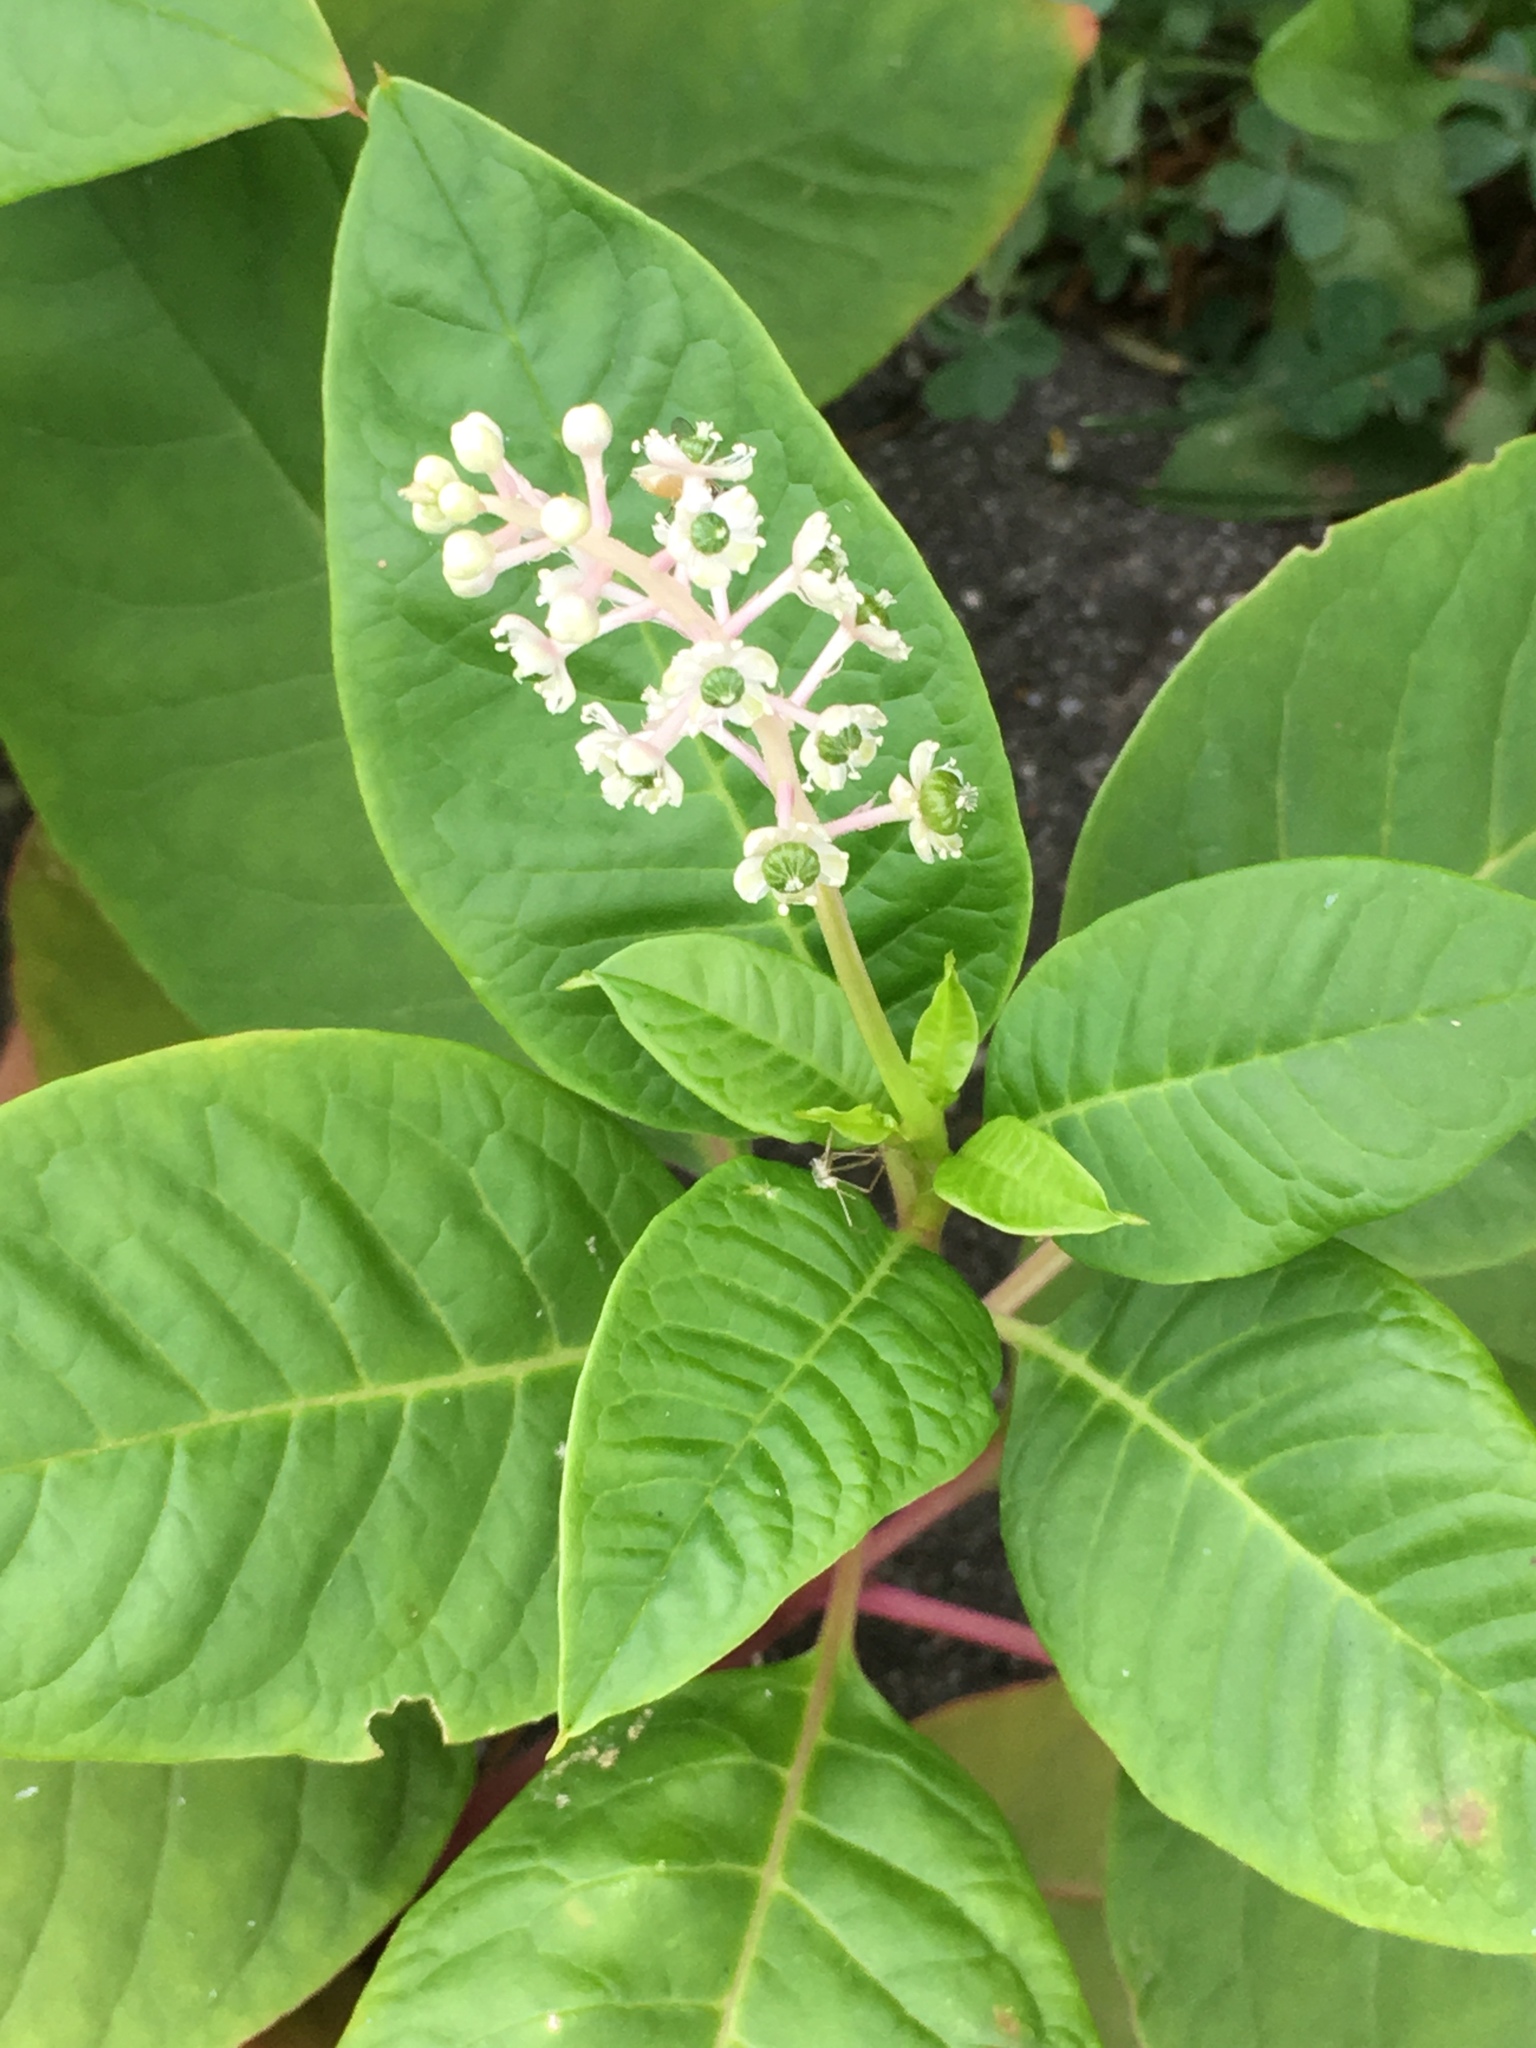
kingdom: Plantae
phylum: Tracheophyta
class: Magnoliopsida
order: Caryophyllales
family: Phytolaccaceae
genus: Phytolacca
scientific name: Phytolacca americana
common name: American pokeweed
